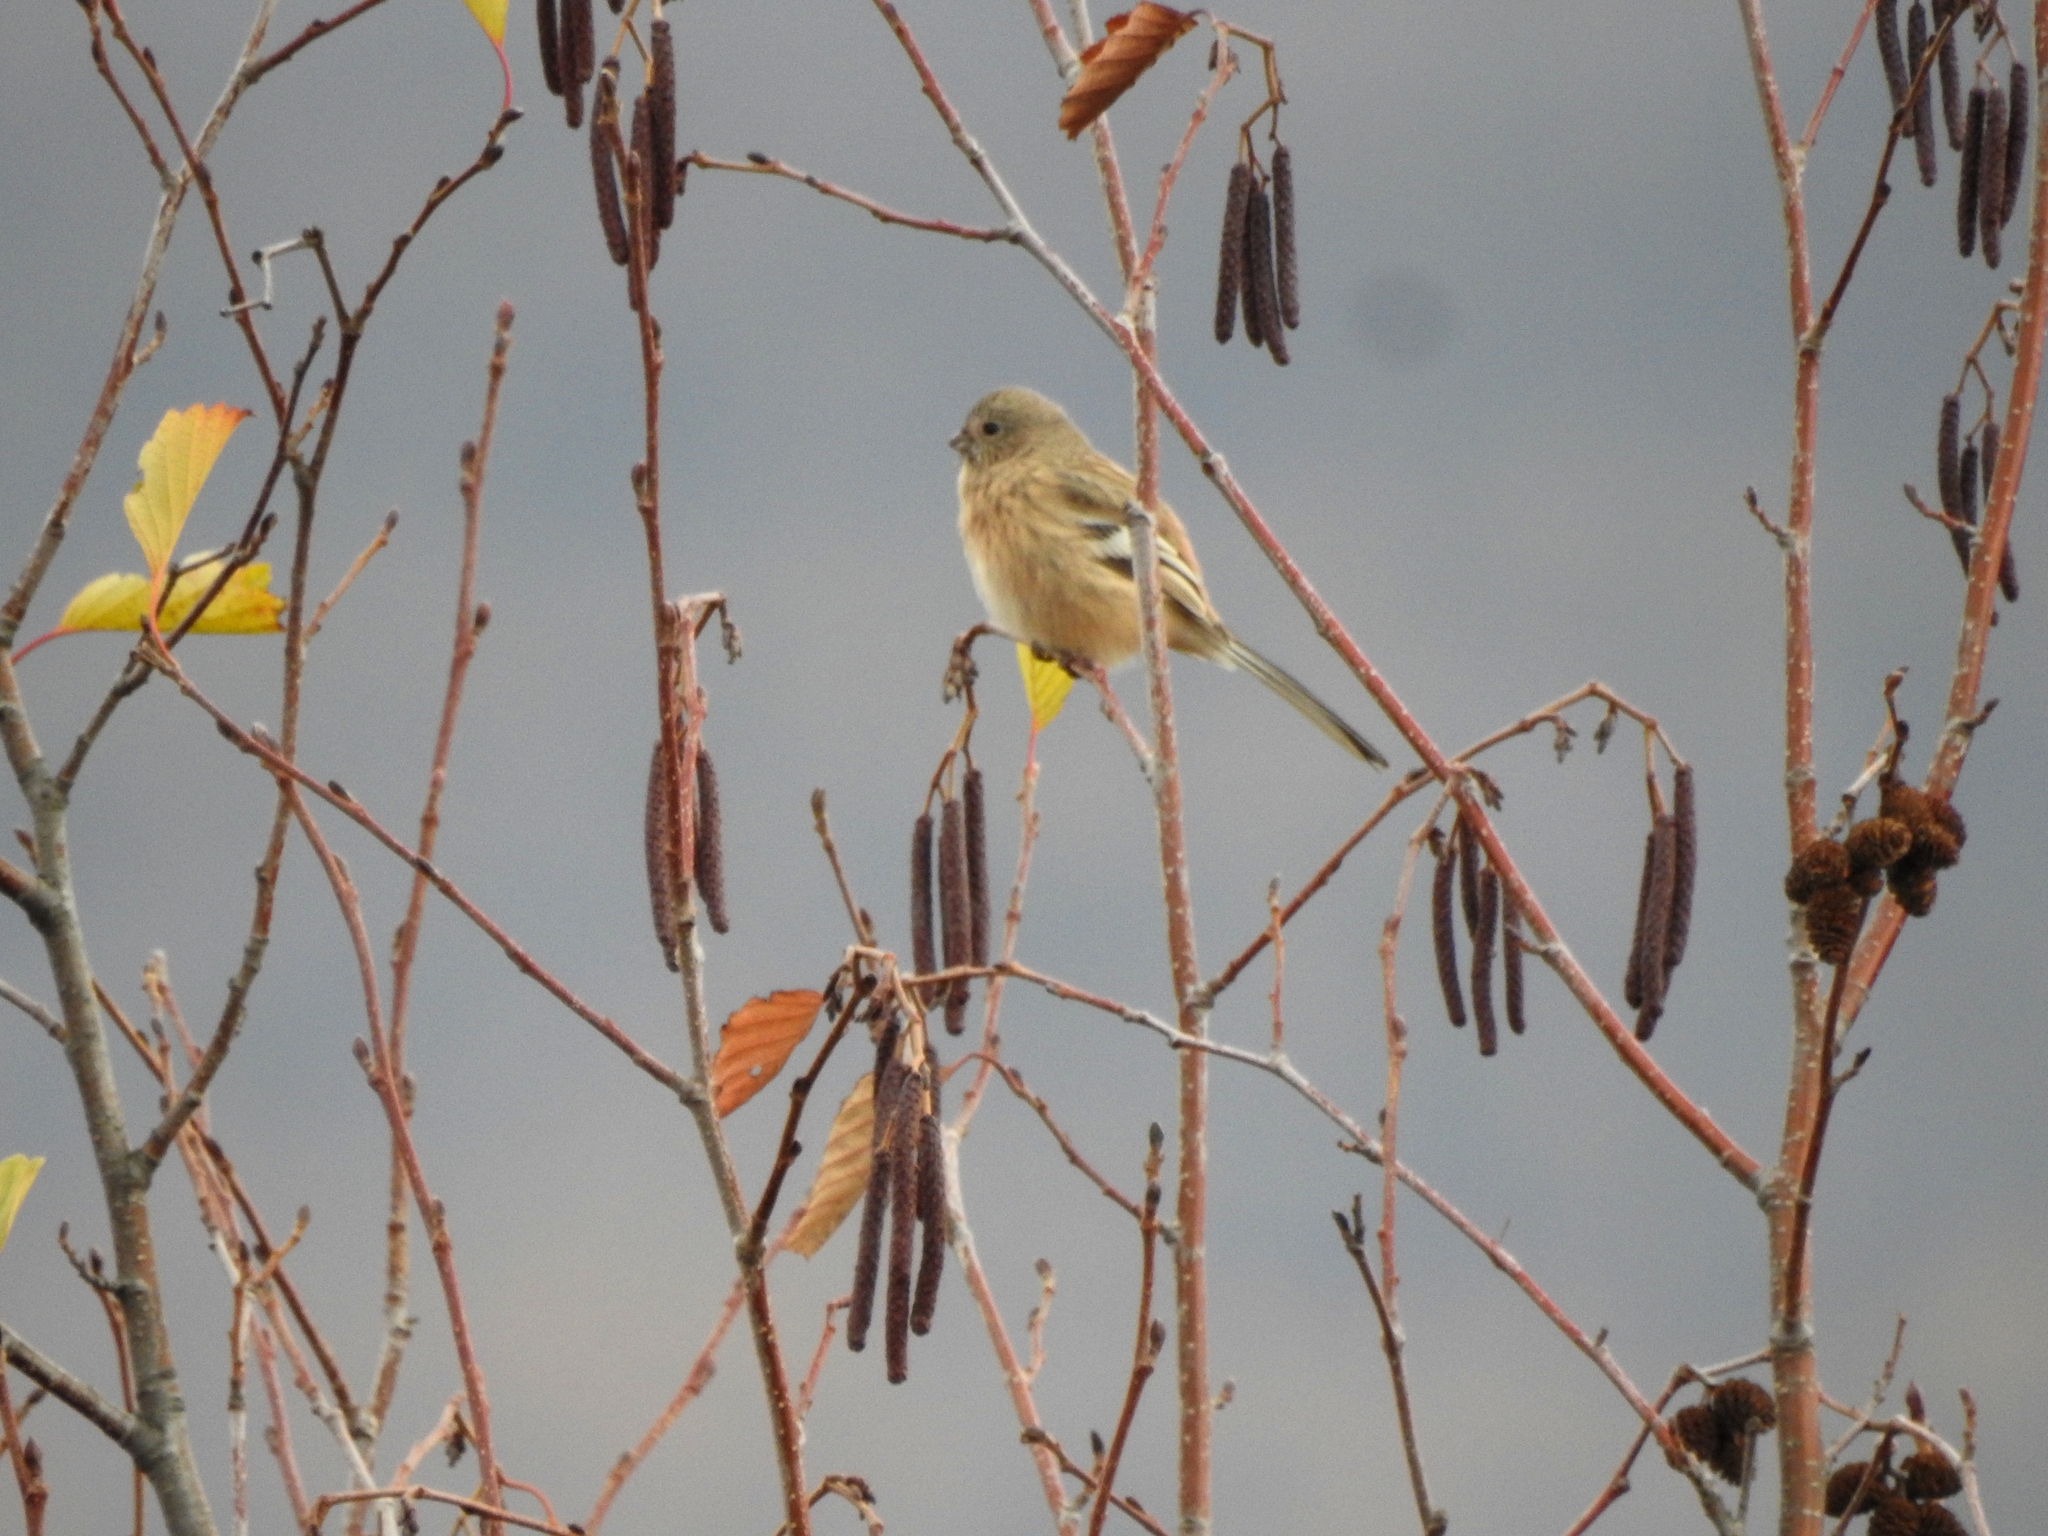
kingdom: Animalia
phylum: Chordata
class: Aves
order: Passeriformes
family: Fringillidae
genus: Carpodacus
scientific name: Carpodacus sibiricus
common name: Long-tailed rosefinch
